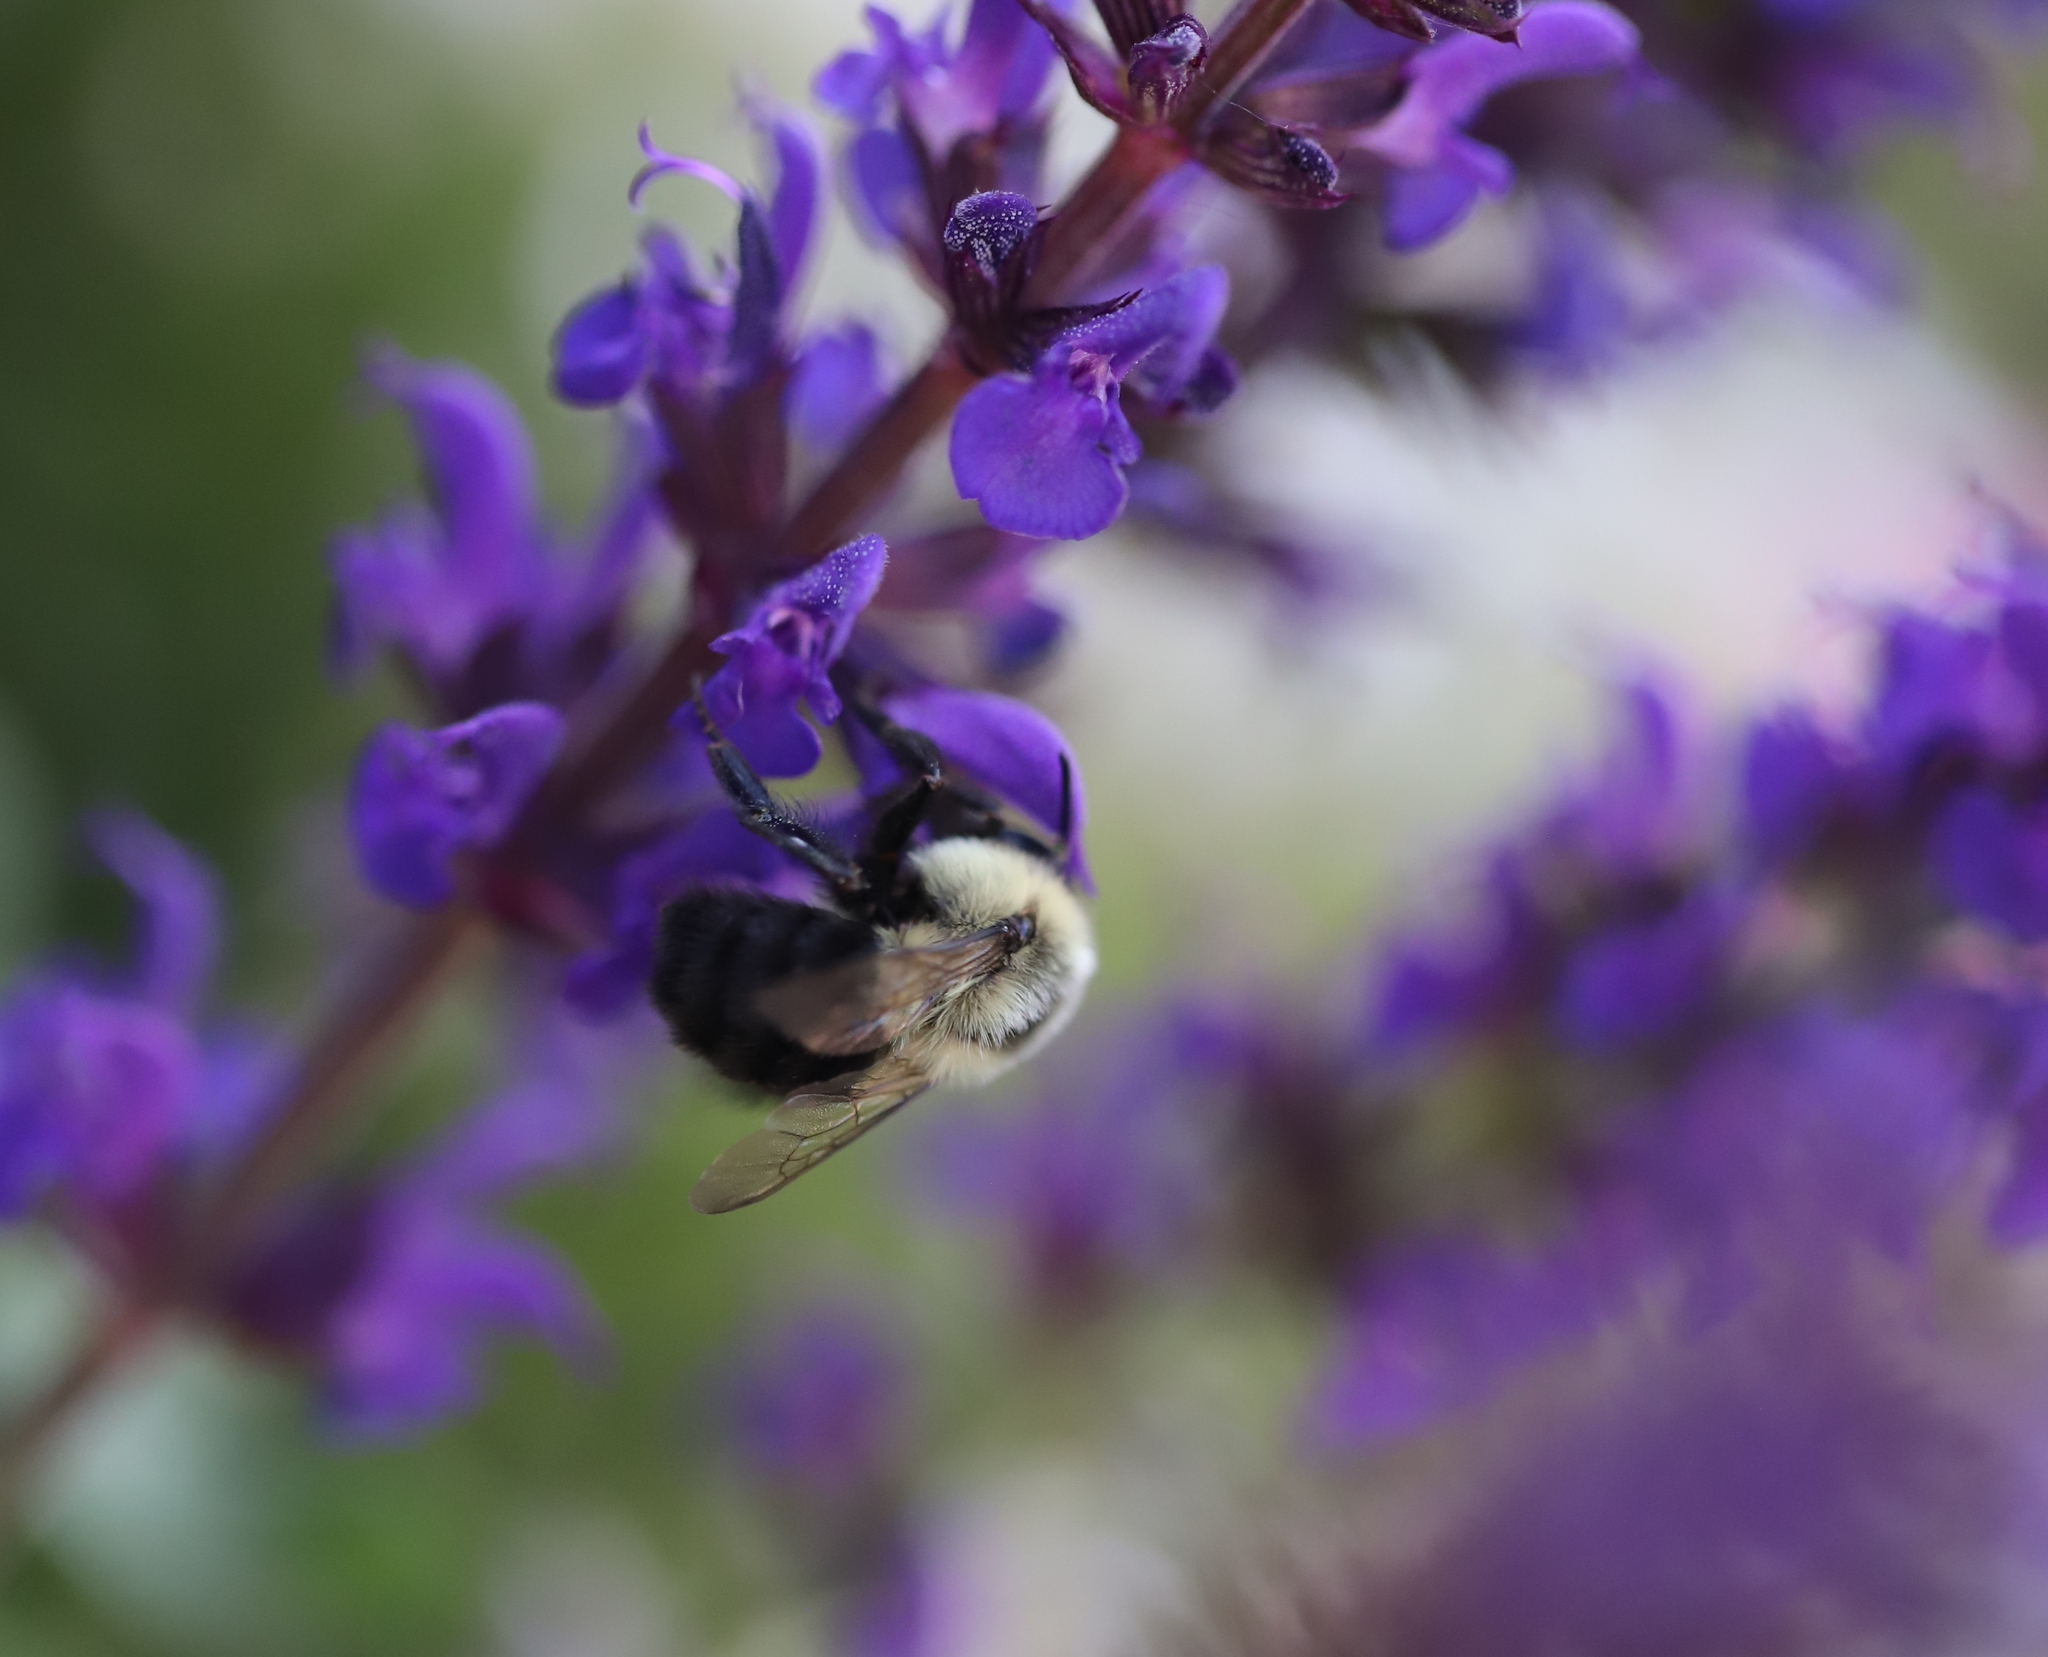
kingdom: Animalia
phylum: Arthropoda
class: Insecta
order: Hymenoptera
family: Apidae
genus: Bombus
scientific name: Bombus impatiens
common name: Common eastern bumble bee
